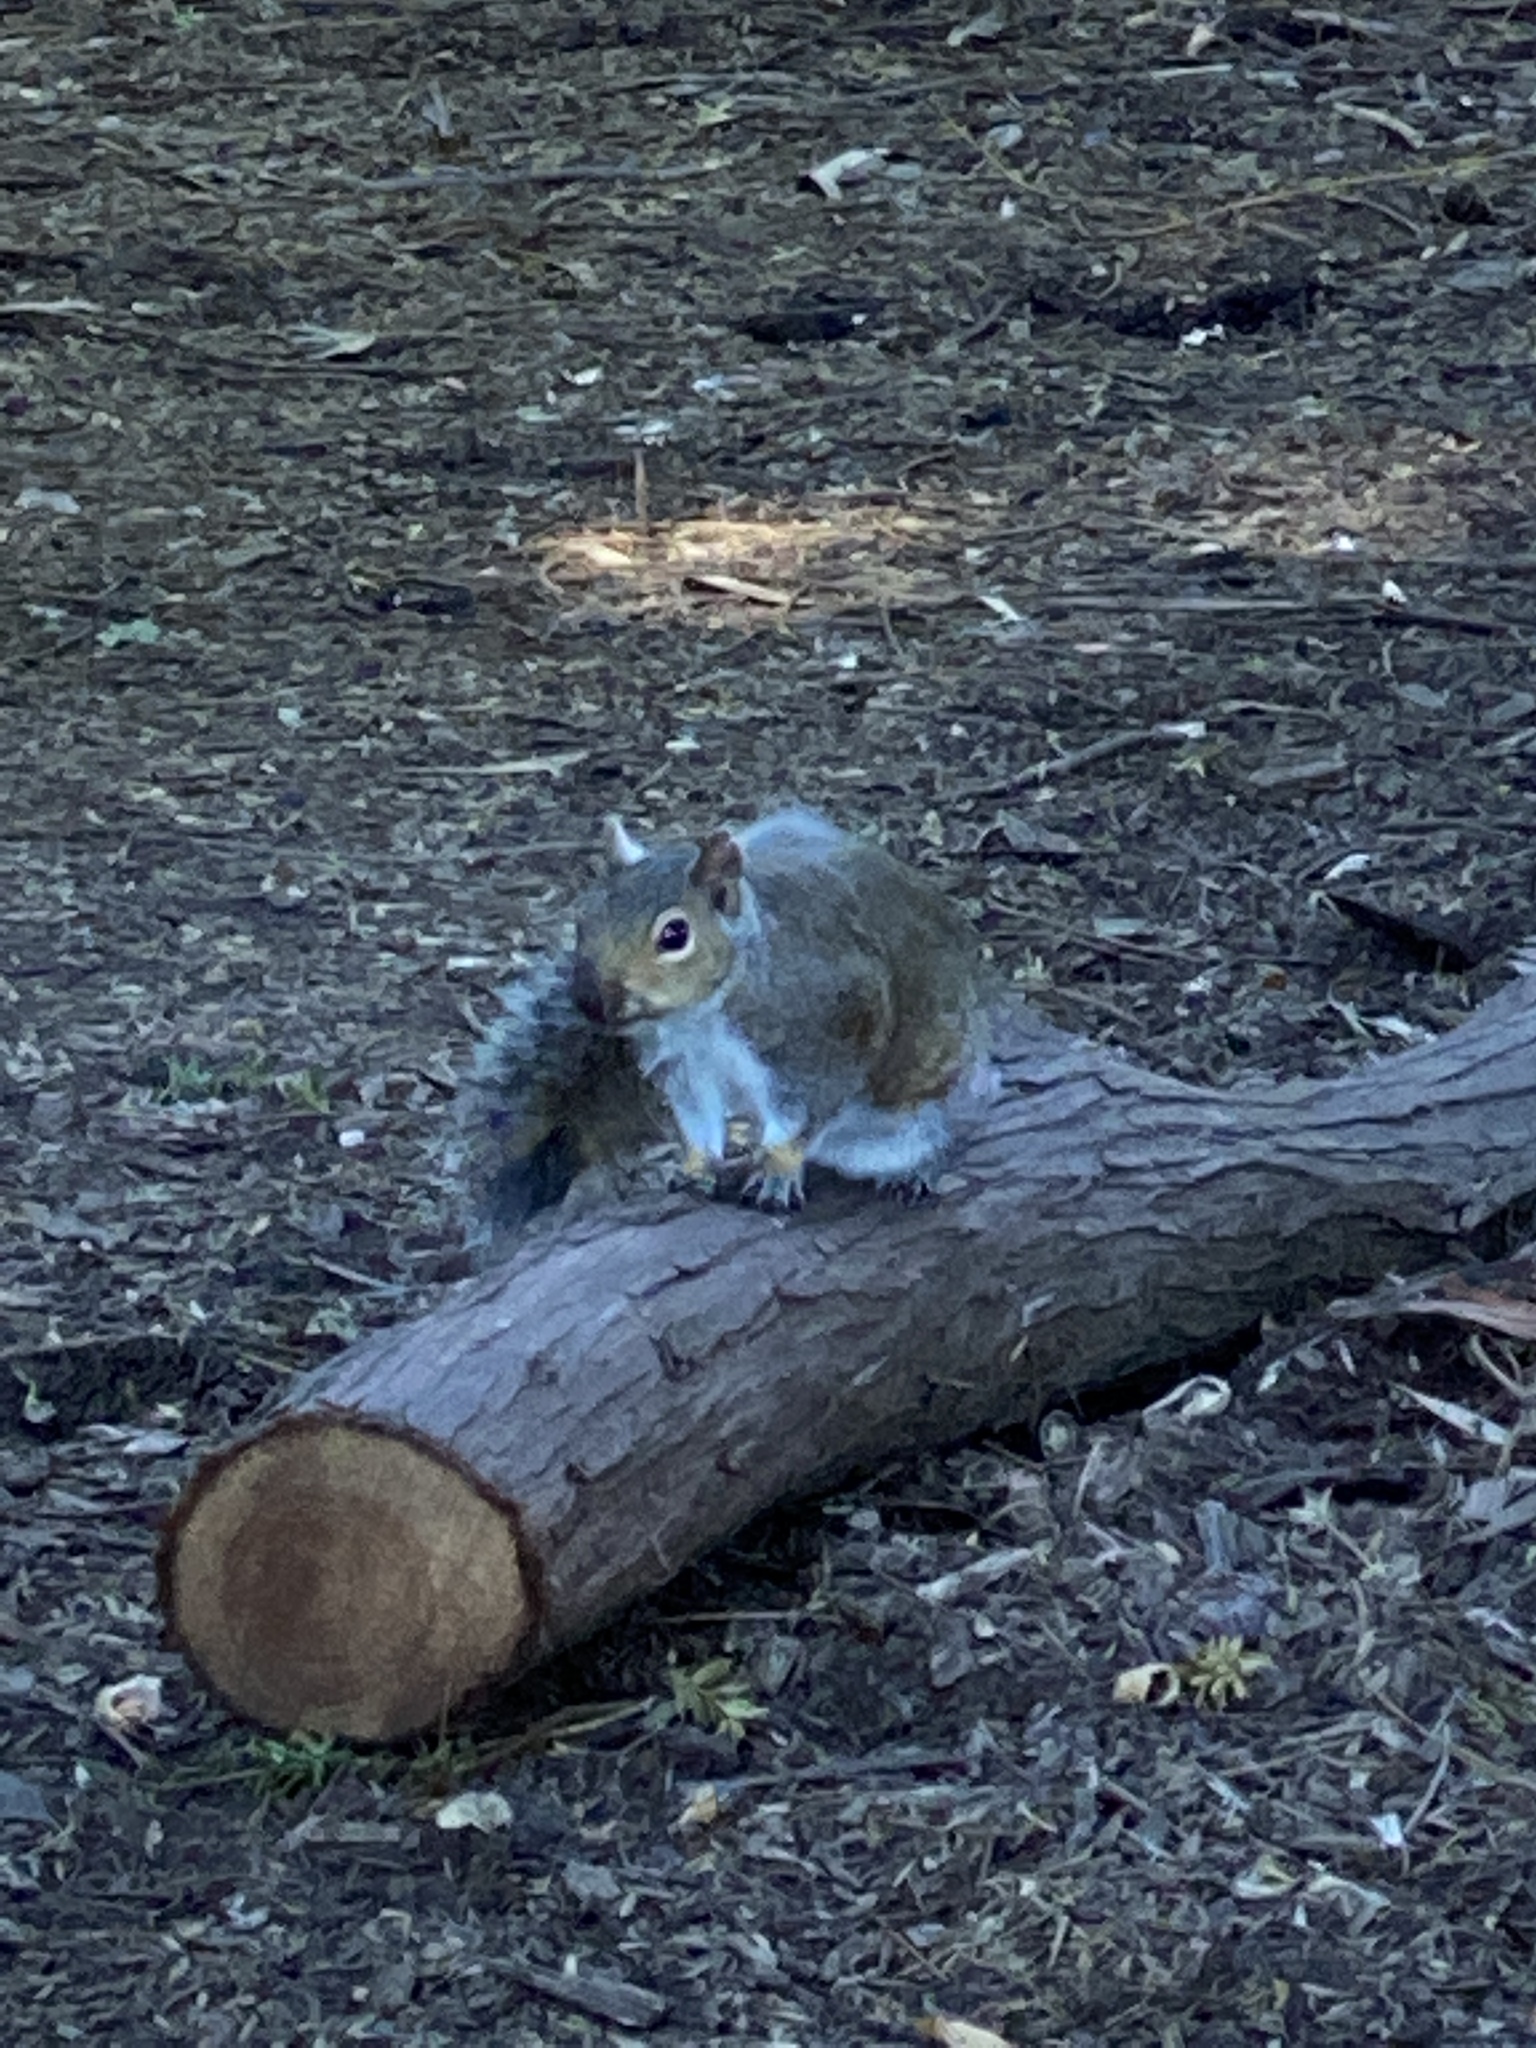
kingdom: Animalia
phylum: Chordata
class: Mammalia
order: Rodentia
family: Sciuridae
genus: Sciurus
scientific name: Sciurus carolinensis
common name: Eastern gray squirrel
